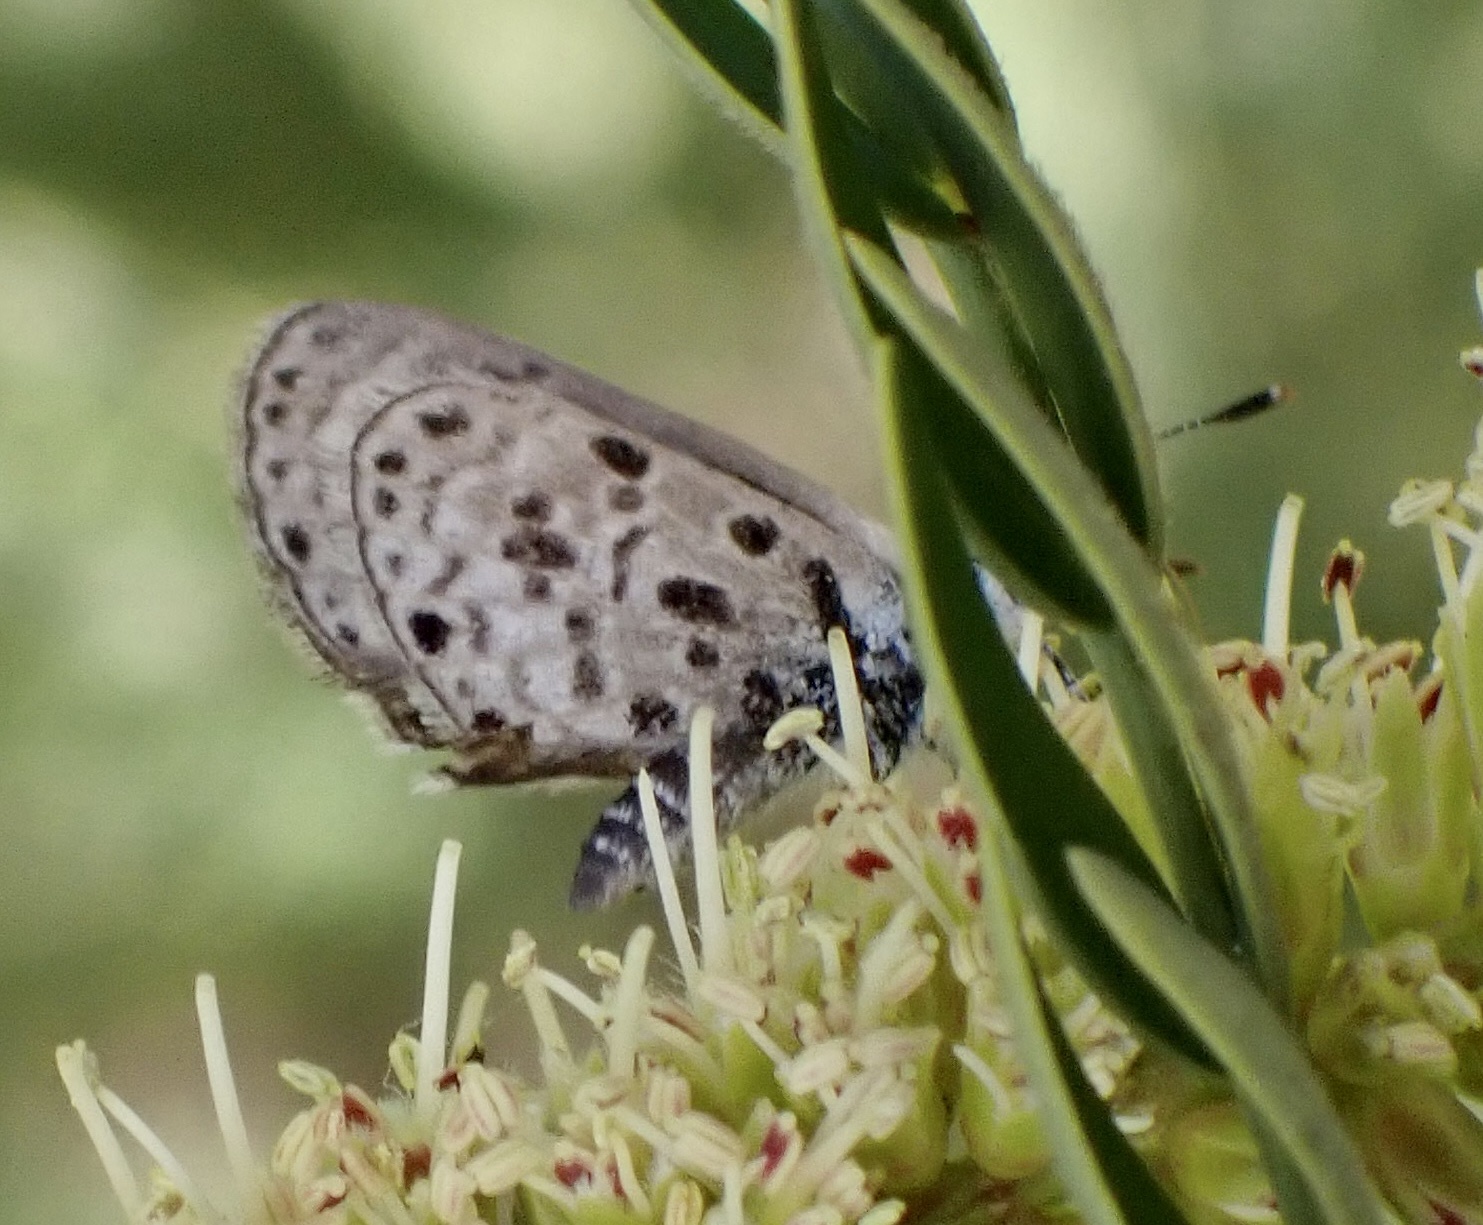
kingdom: Animalia
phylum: Arthropoda
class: Insecta
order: Lepidoptera
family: Lycaenidae
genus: Azanus
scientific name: Azanus moriqua
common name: Thorn-tree babul blue
